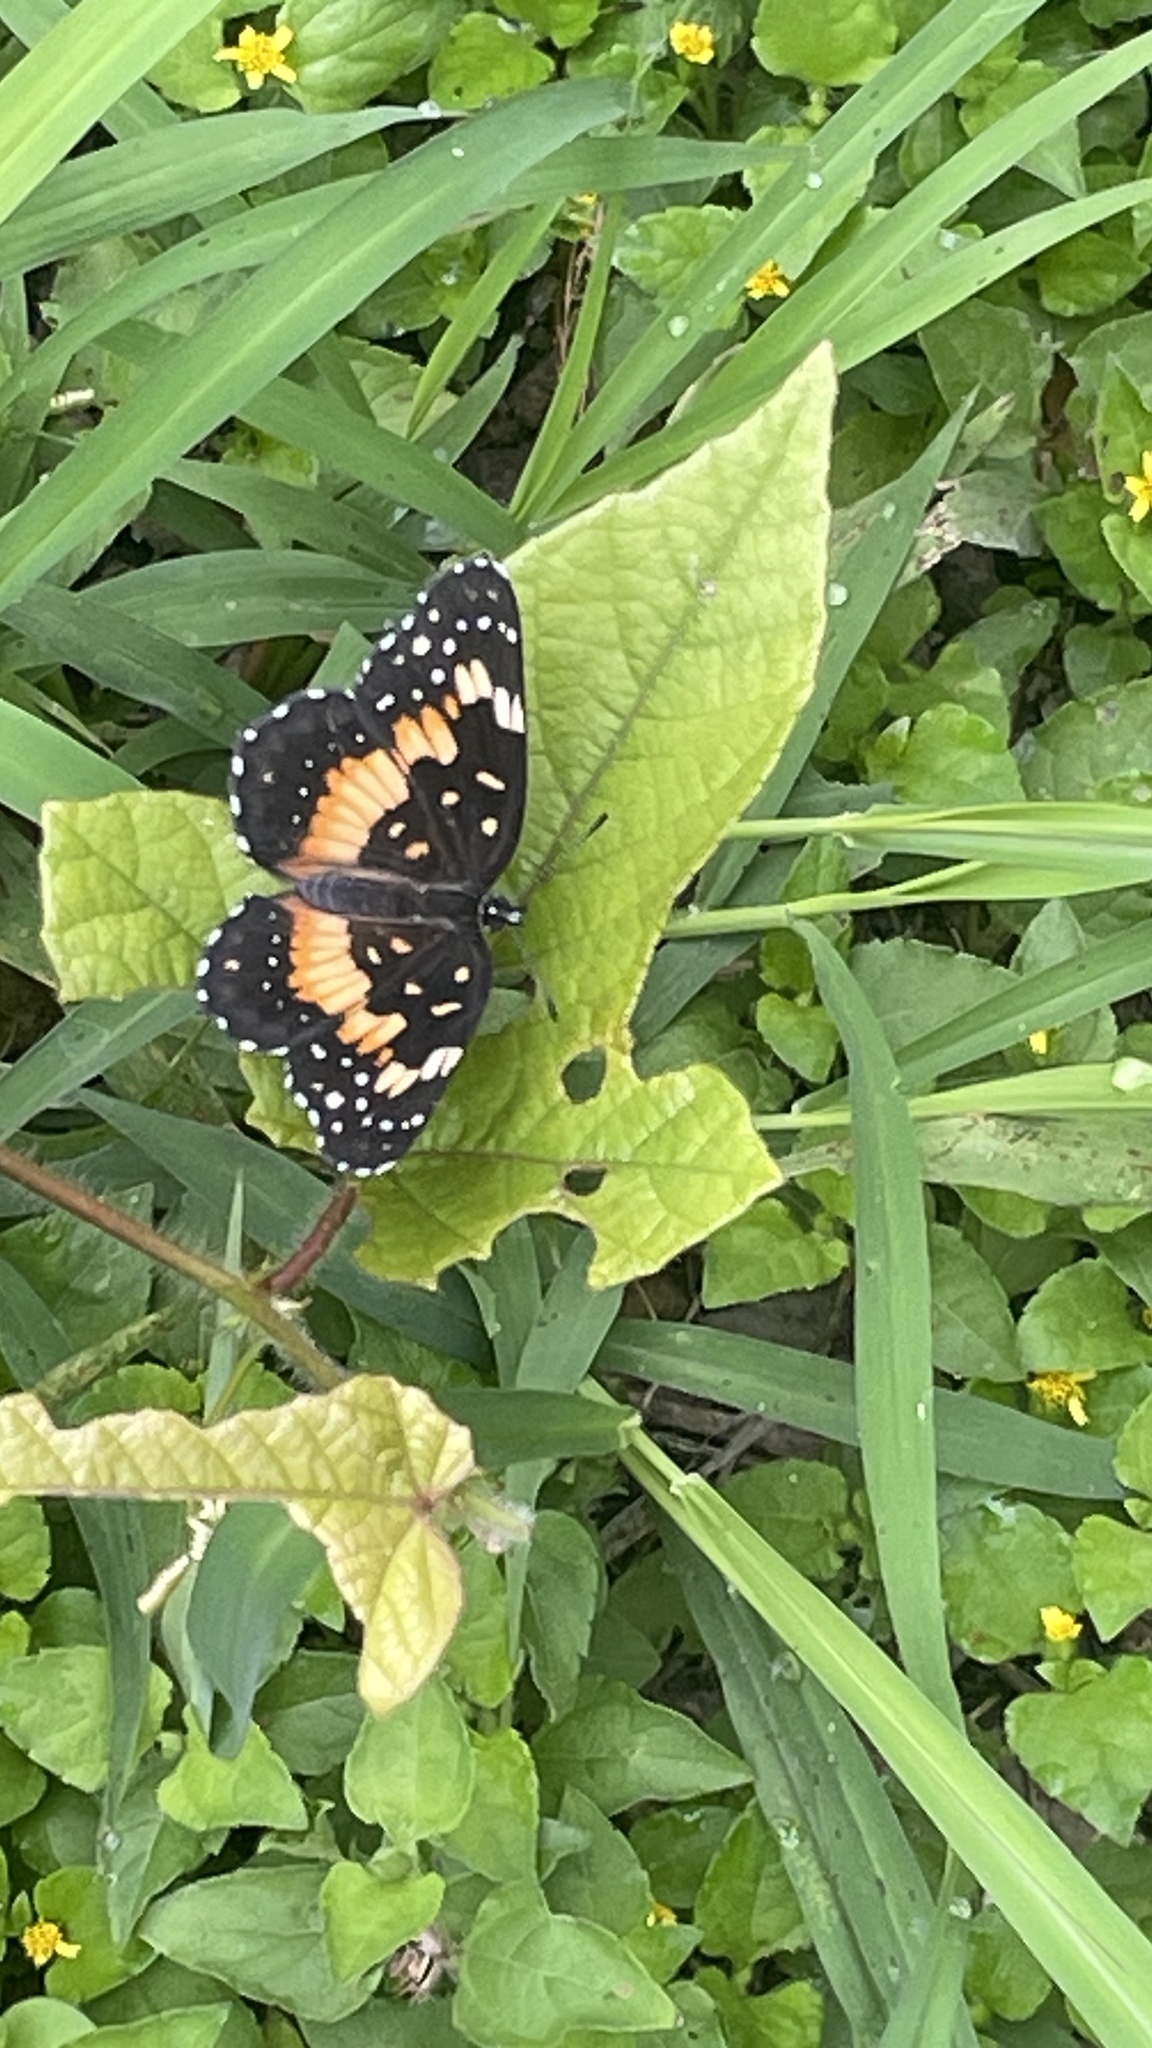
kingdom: Animalia
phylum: Arthropoda
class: Insecta
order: Lepidoptera
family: Nymphalidae
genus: Chlosyne
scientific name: Chlosyne lacinia
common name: Bordered patch
